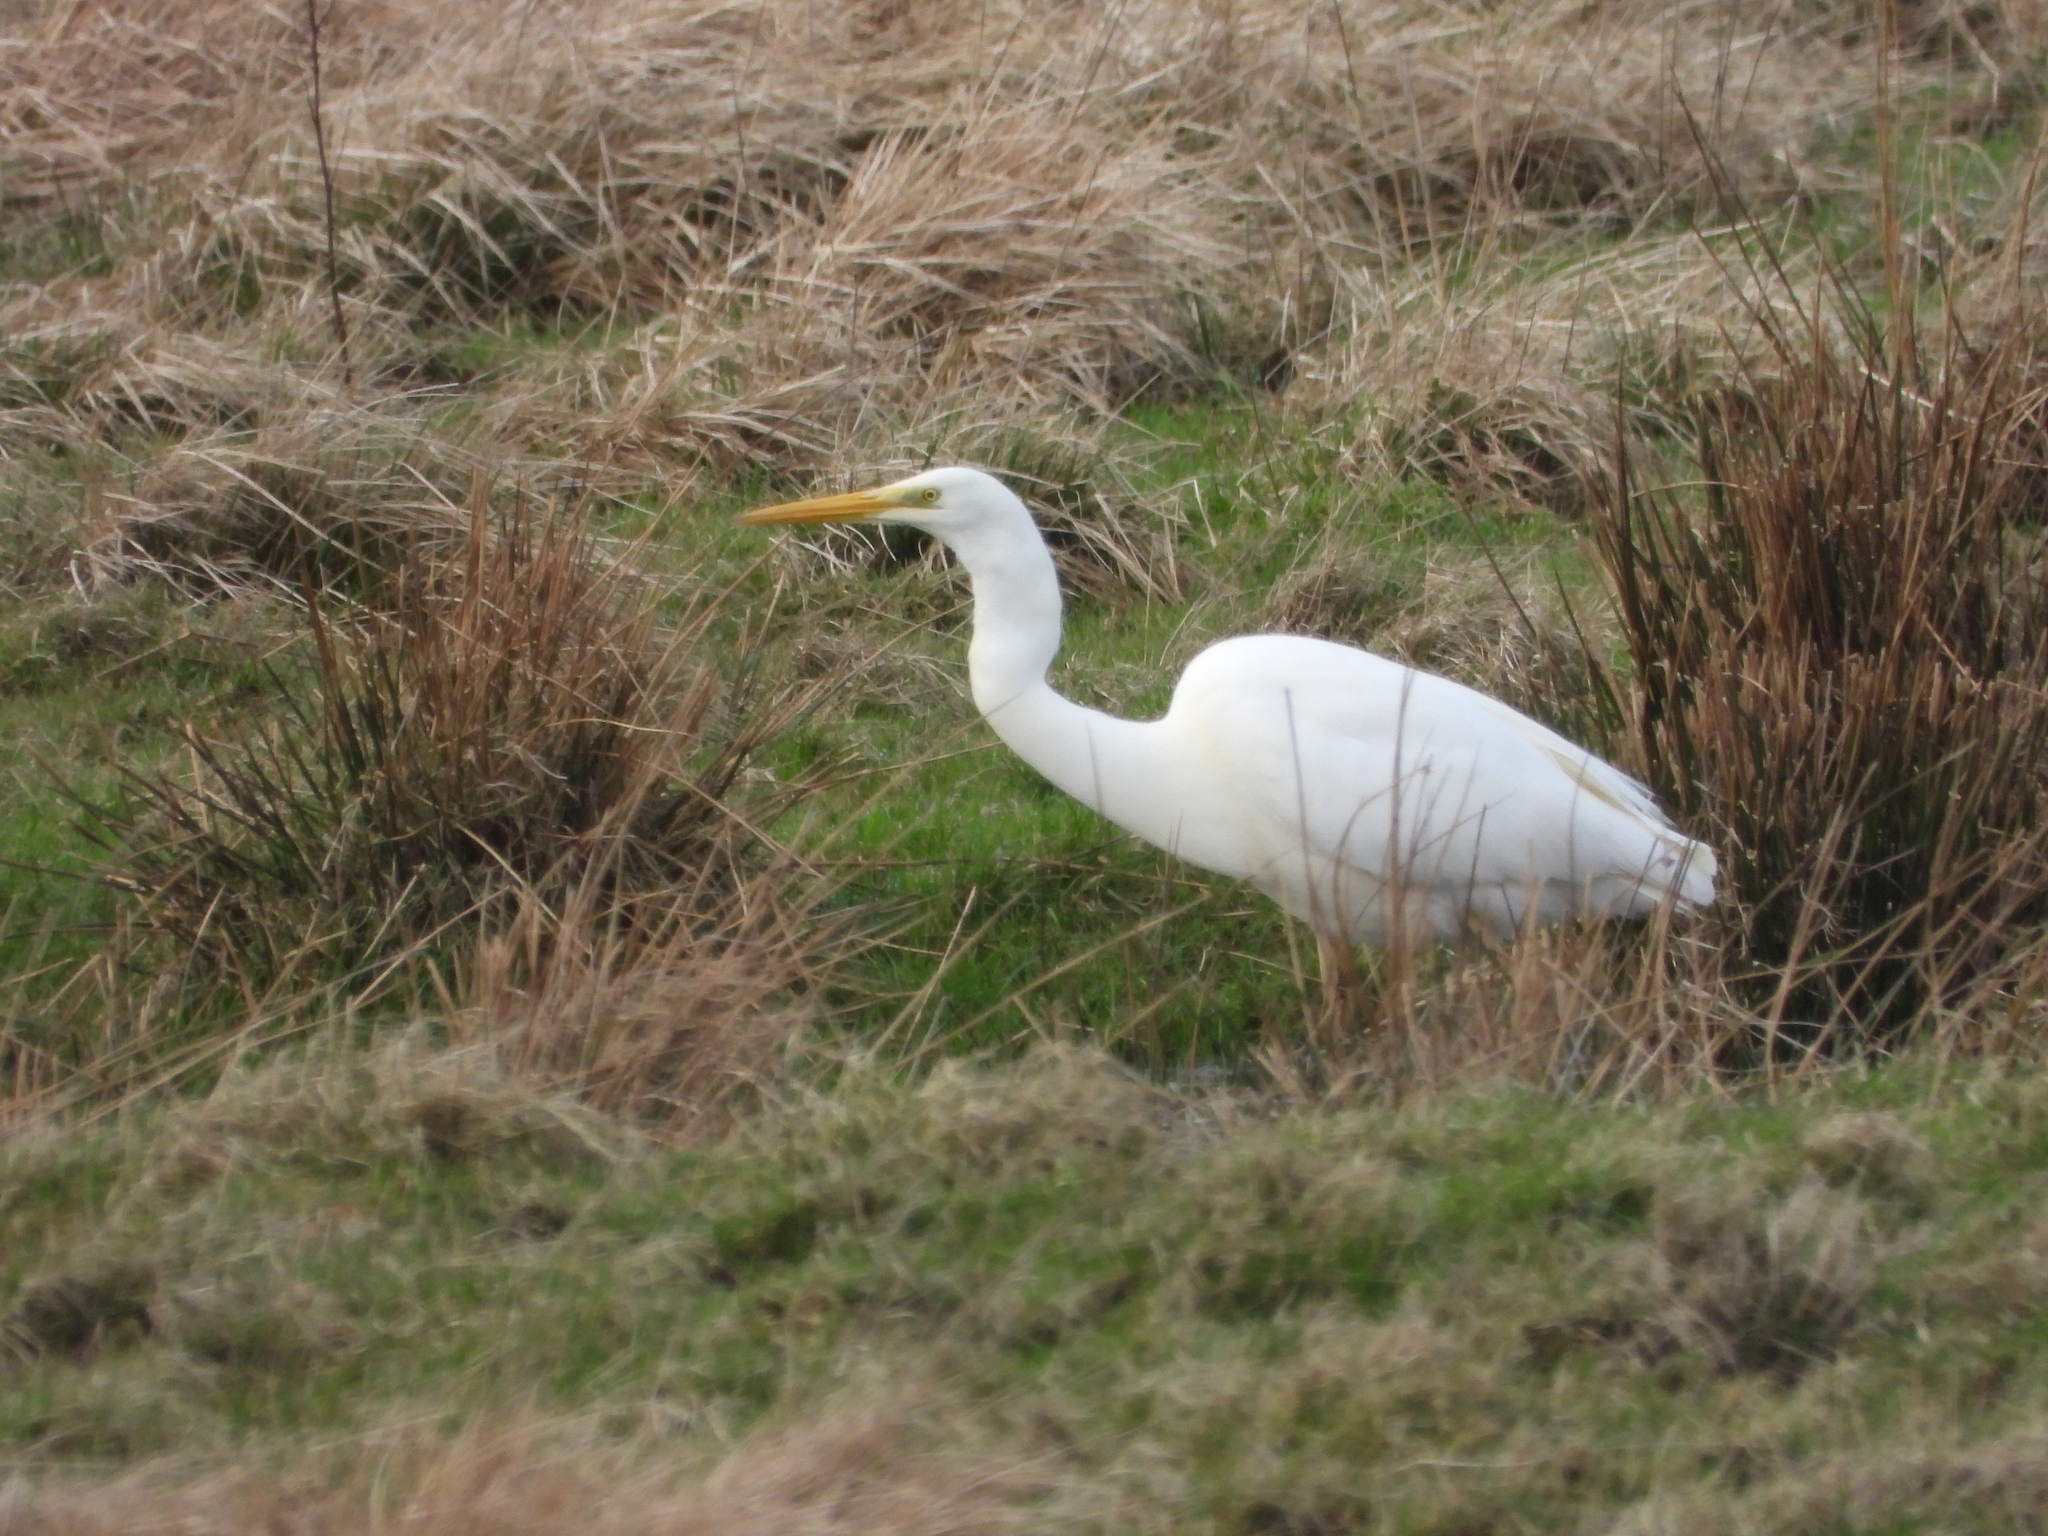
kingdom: Animalia
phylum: Chordata
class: Aves
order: Pelecaniformes
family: Ardeidae
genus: Ardea
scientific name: Ardea alba
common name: Great egret
